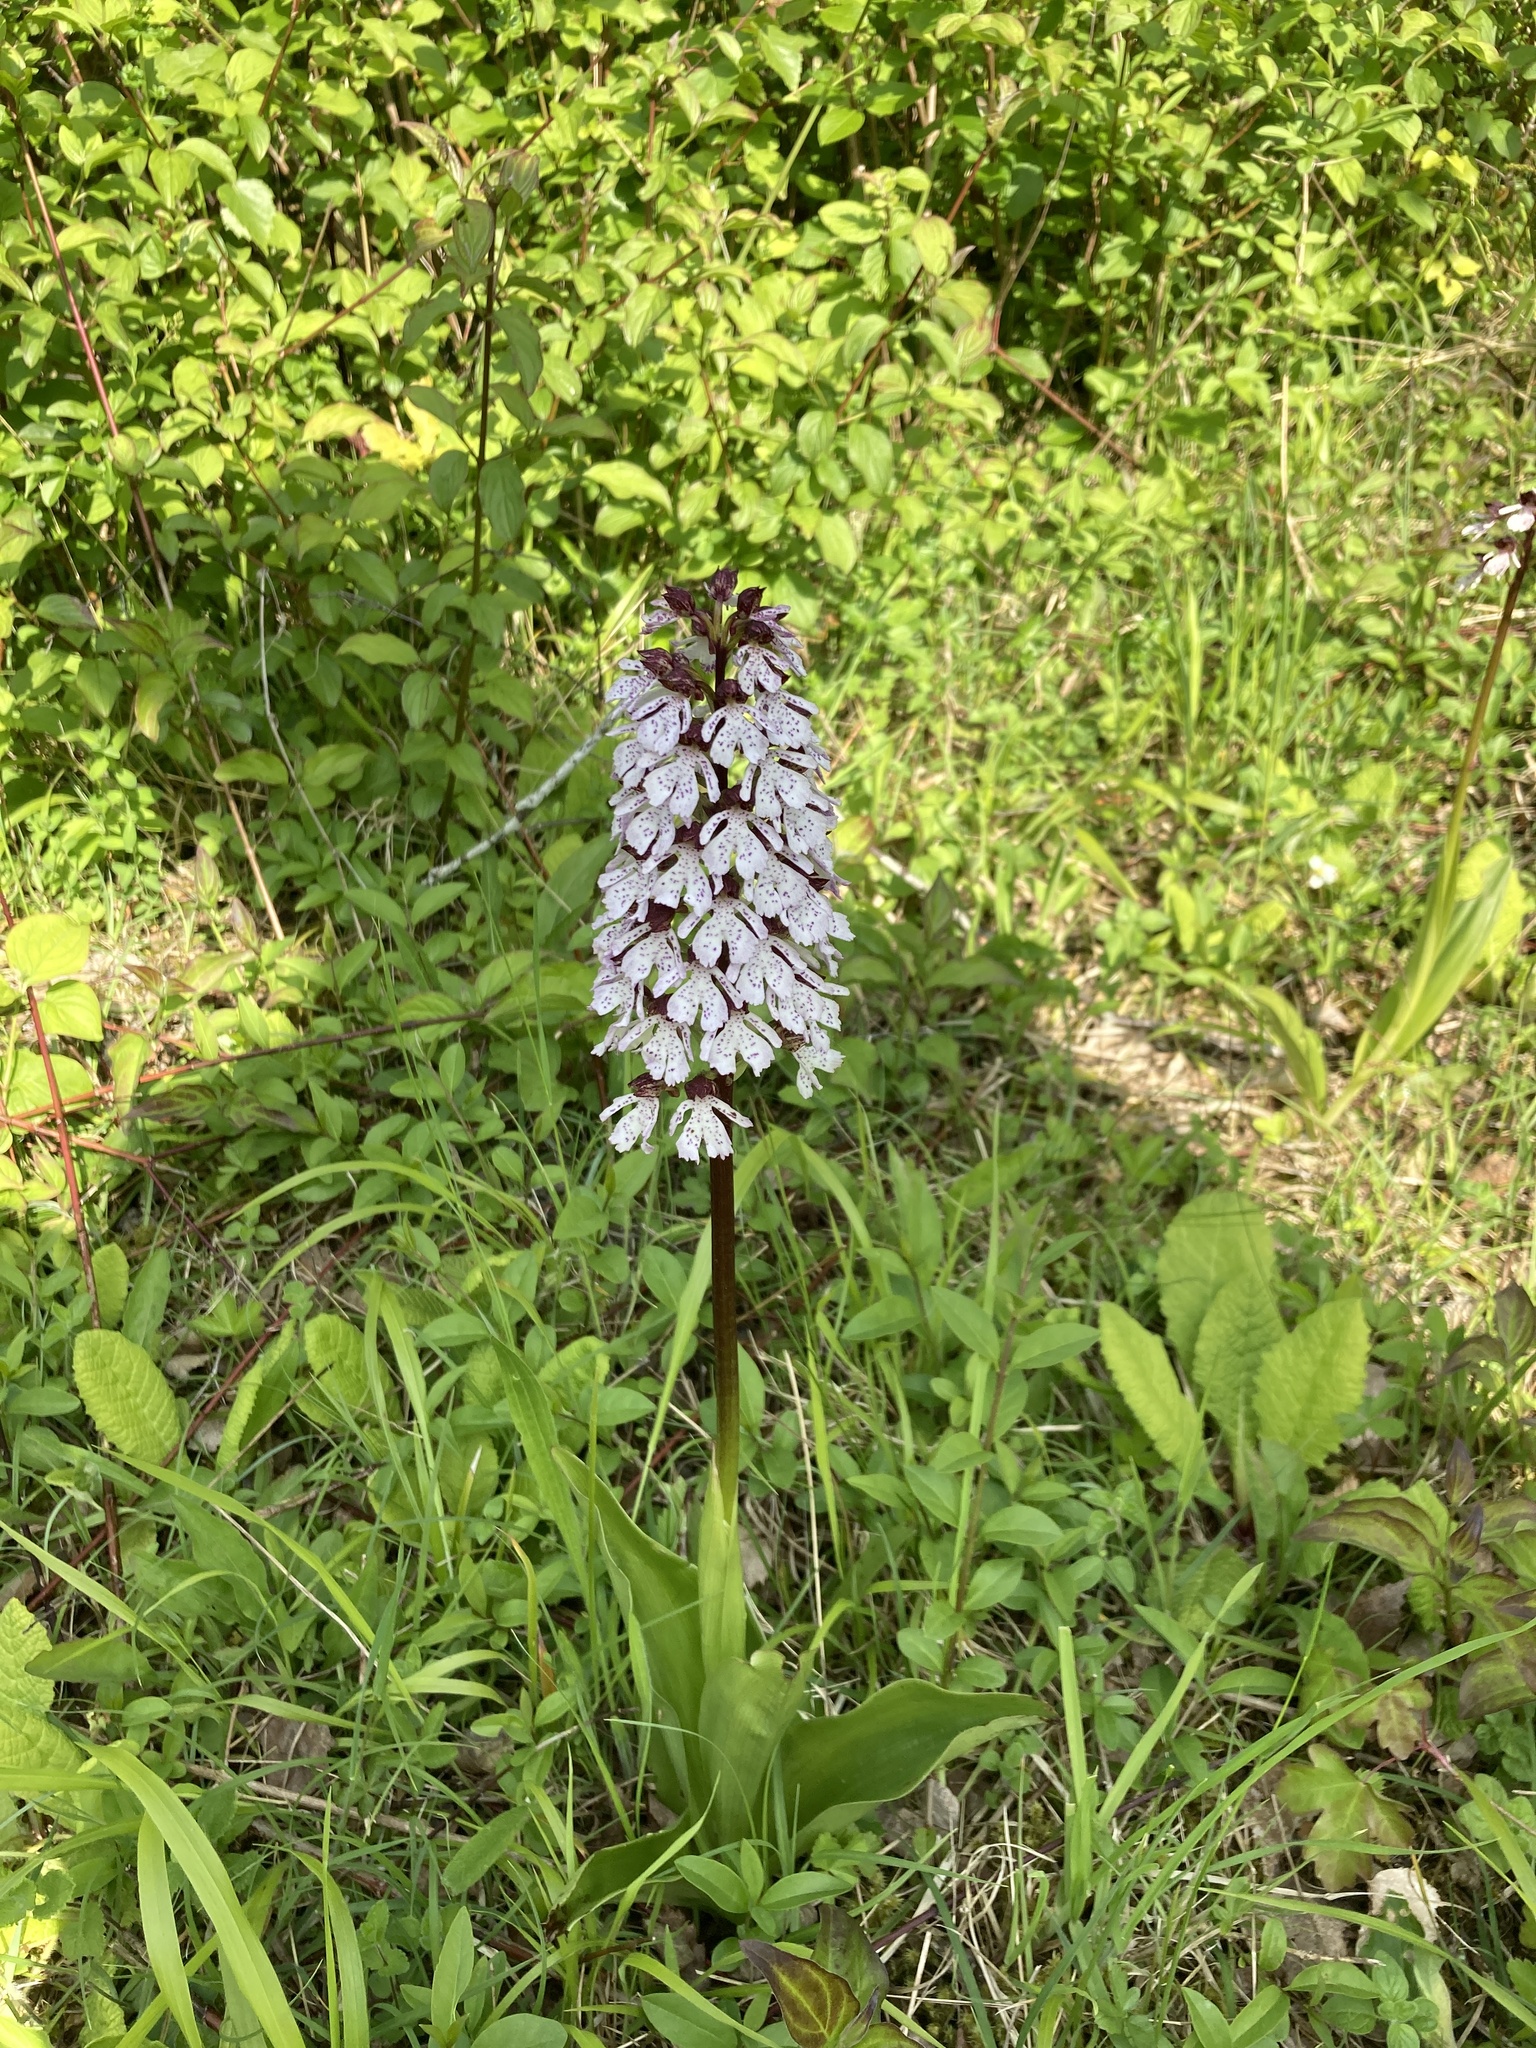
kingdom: Plantae
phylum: Tracheophyta
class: Liliopsida
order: Asparagales
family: Orchidaceae
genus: Orchis
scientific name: Orchis purpurea
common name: Lady orchid
